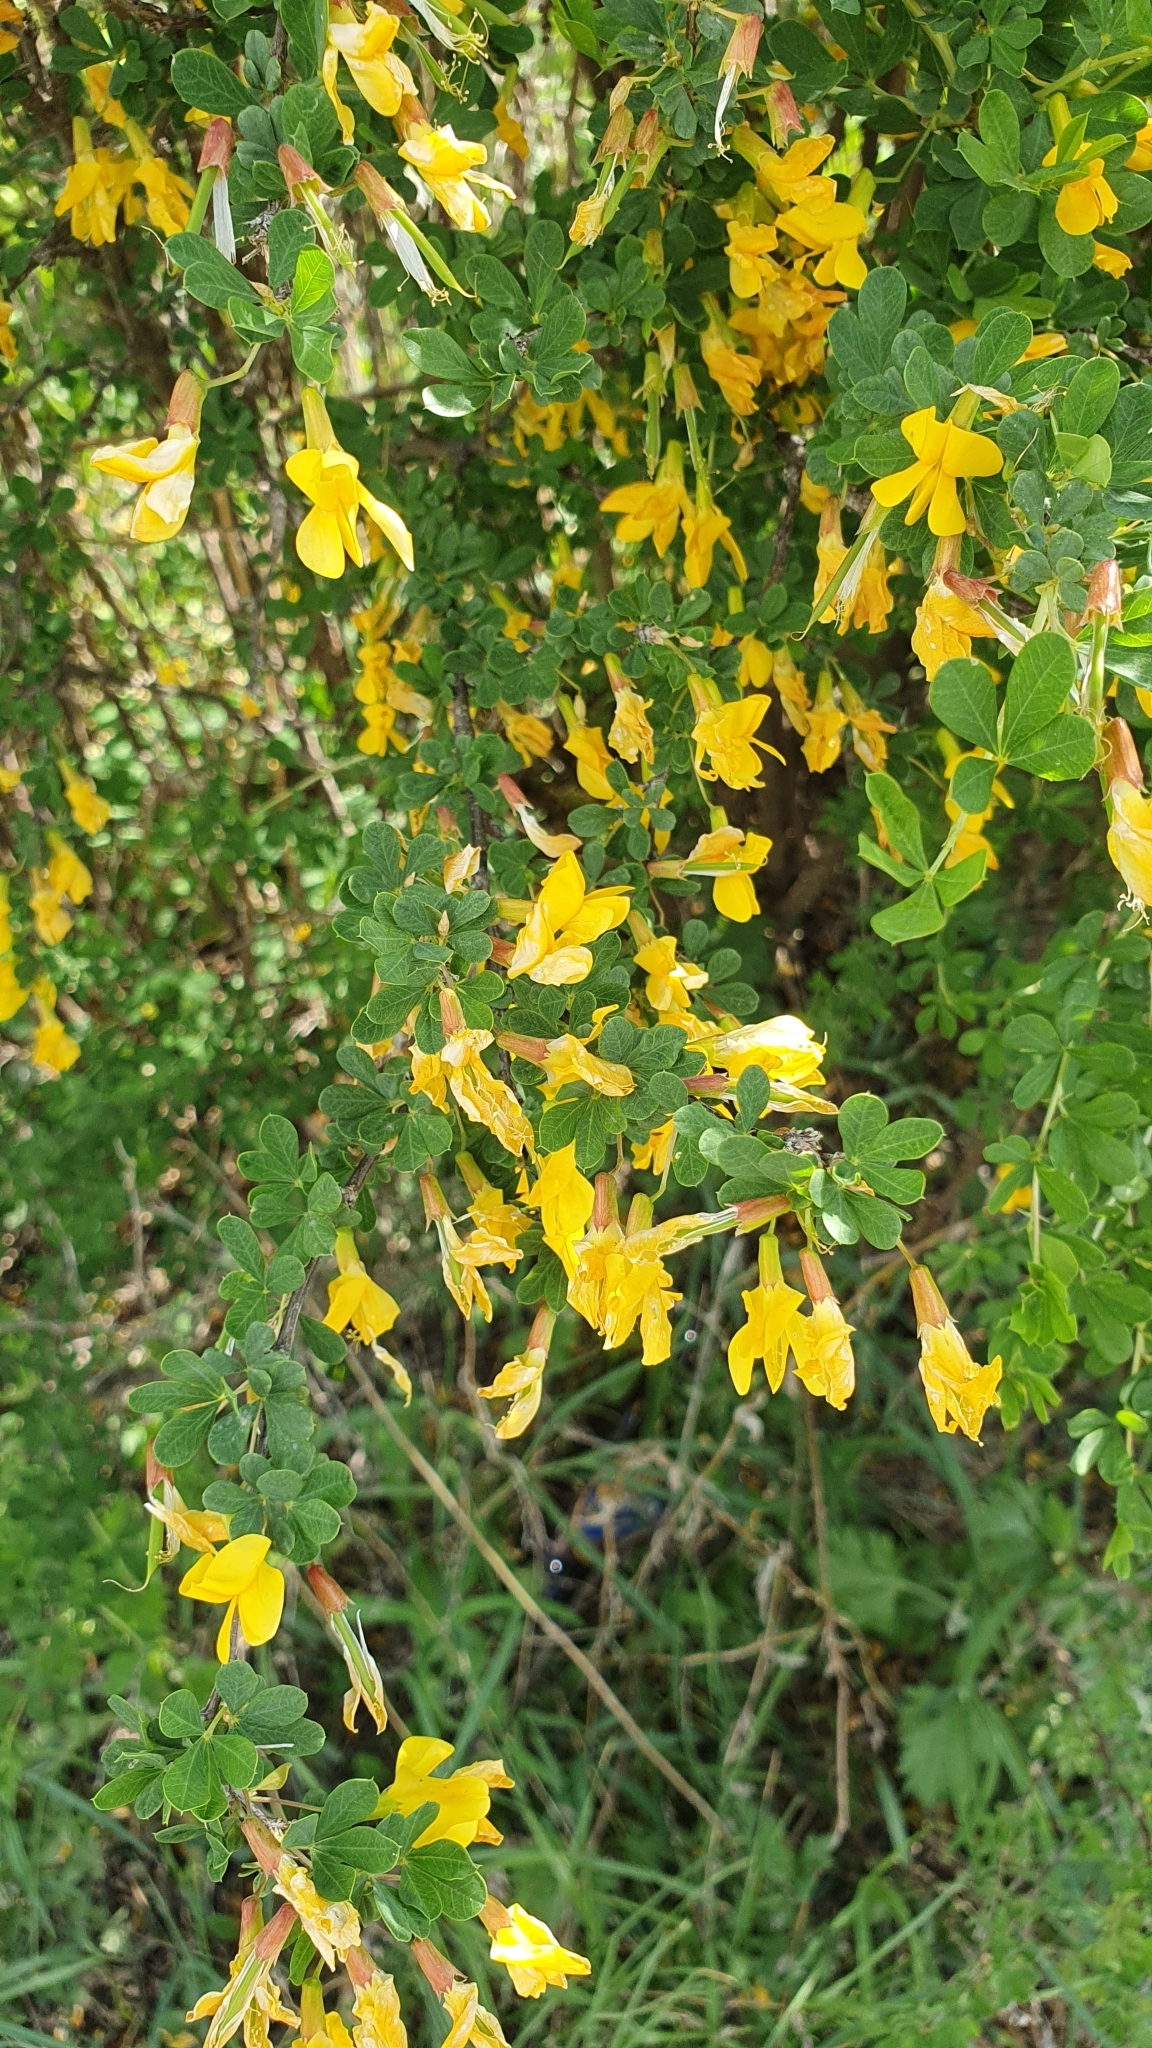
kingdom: Plantae
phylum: Tracheophyta
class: Magnoliopsida
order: Fabales
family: Fabaceae
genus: Caragana
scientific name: Caragana frutex
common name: Russian peashrub
